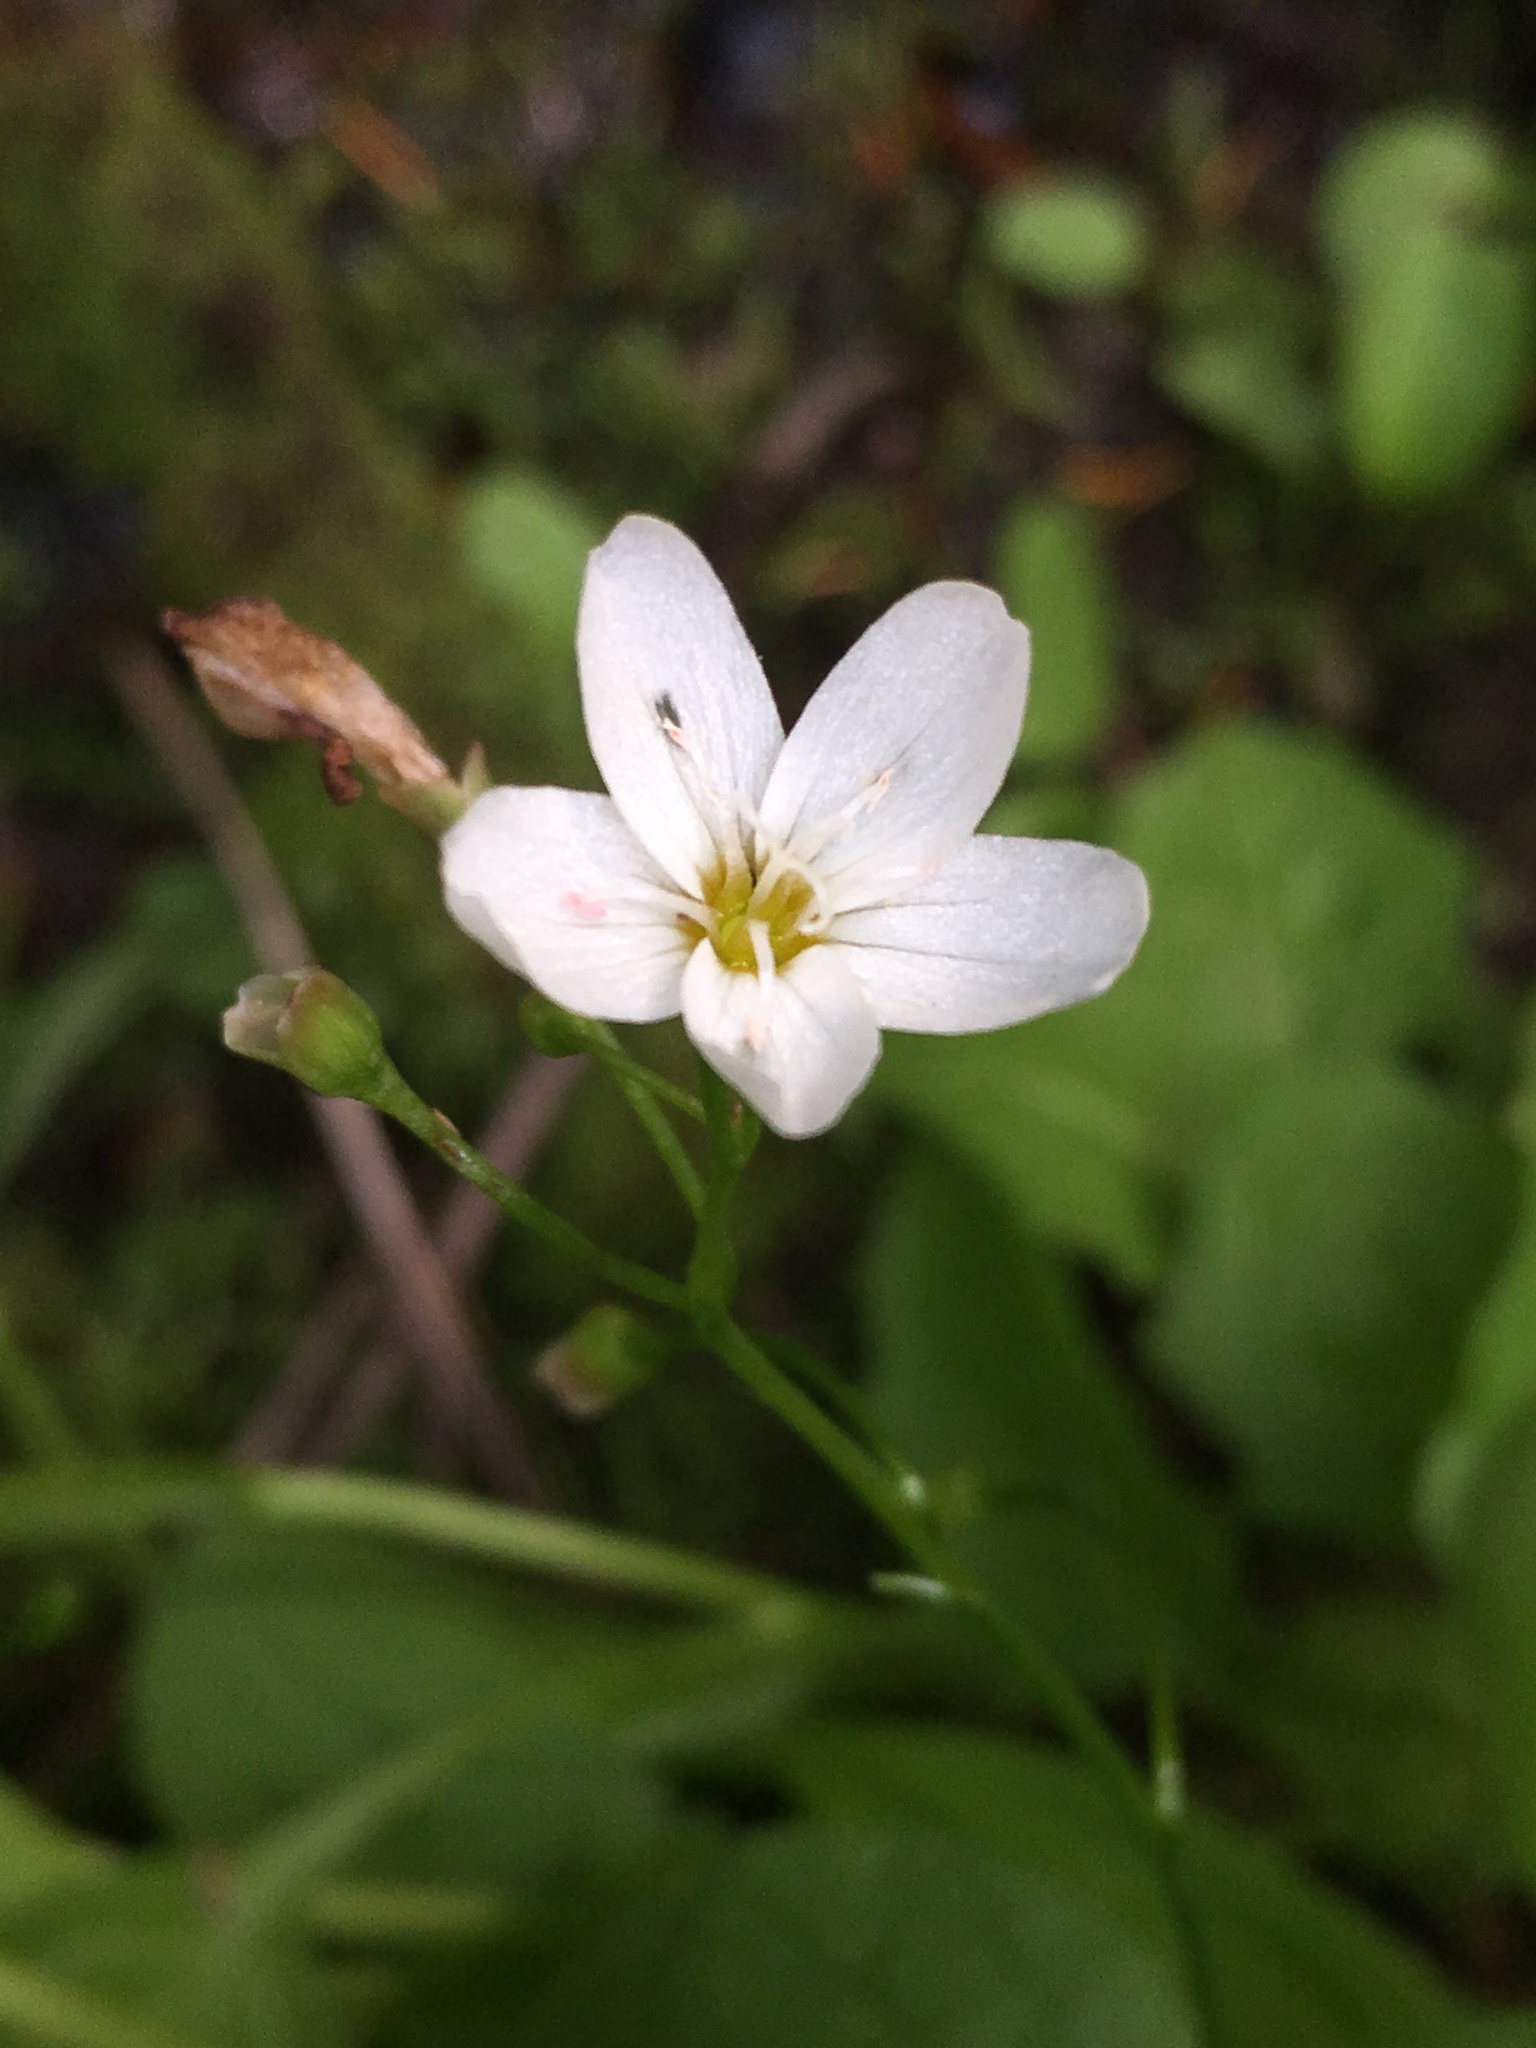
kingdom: Plantae
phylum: Tracheophyta
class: Magnoliopsida
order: Caryophyllales
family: Montiaceae
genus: Claytonia
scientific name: Claytonia cordifolia
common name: Broad-leaved spring beauty
